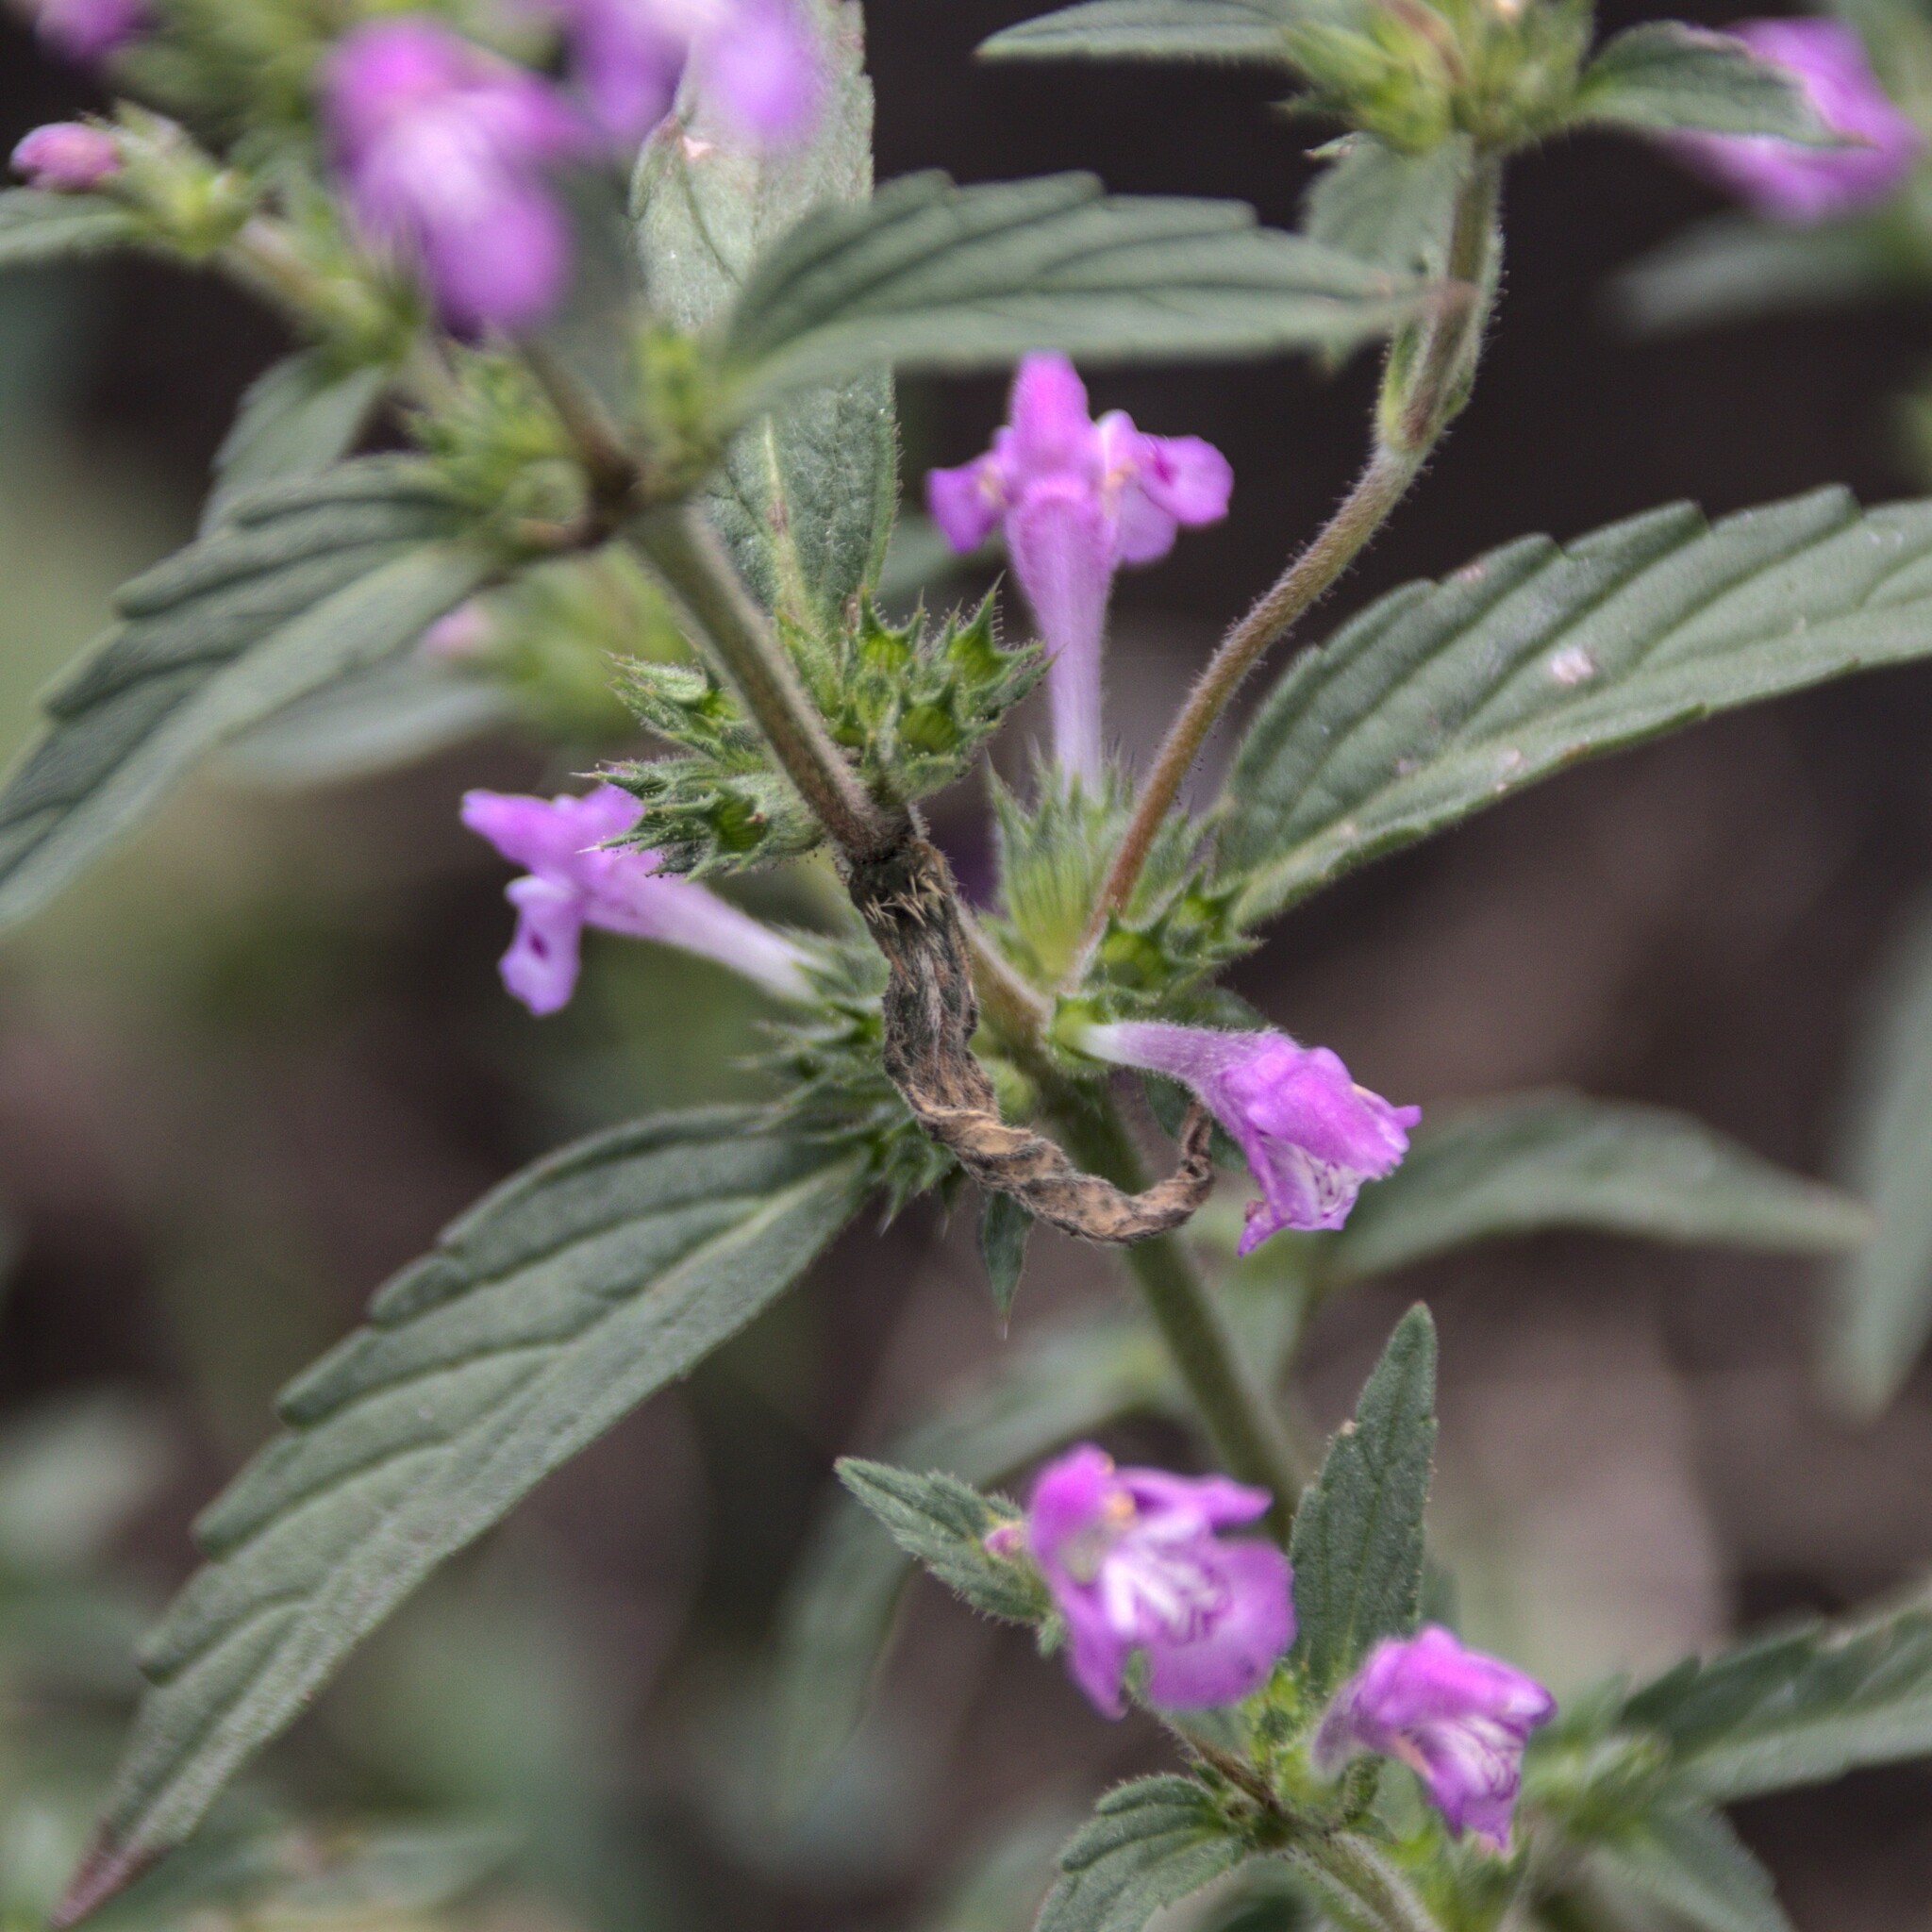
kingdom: Plantae
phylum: Tracheophyta
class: Magnoliopsida
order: Lamiales
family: Lamiaceae
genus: Galeopsis
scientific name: Galeopsis ladanum
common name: Broad-leaved hemp-nettle
